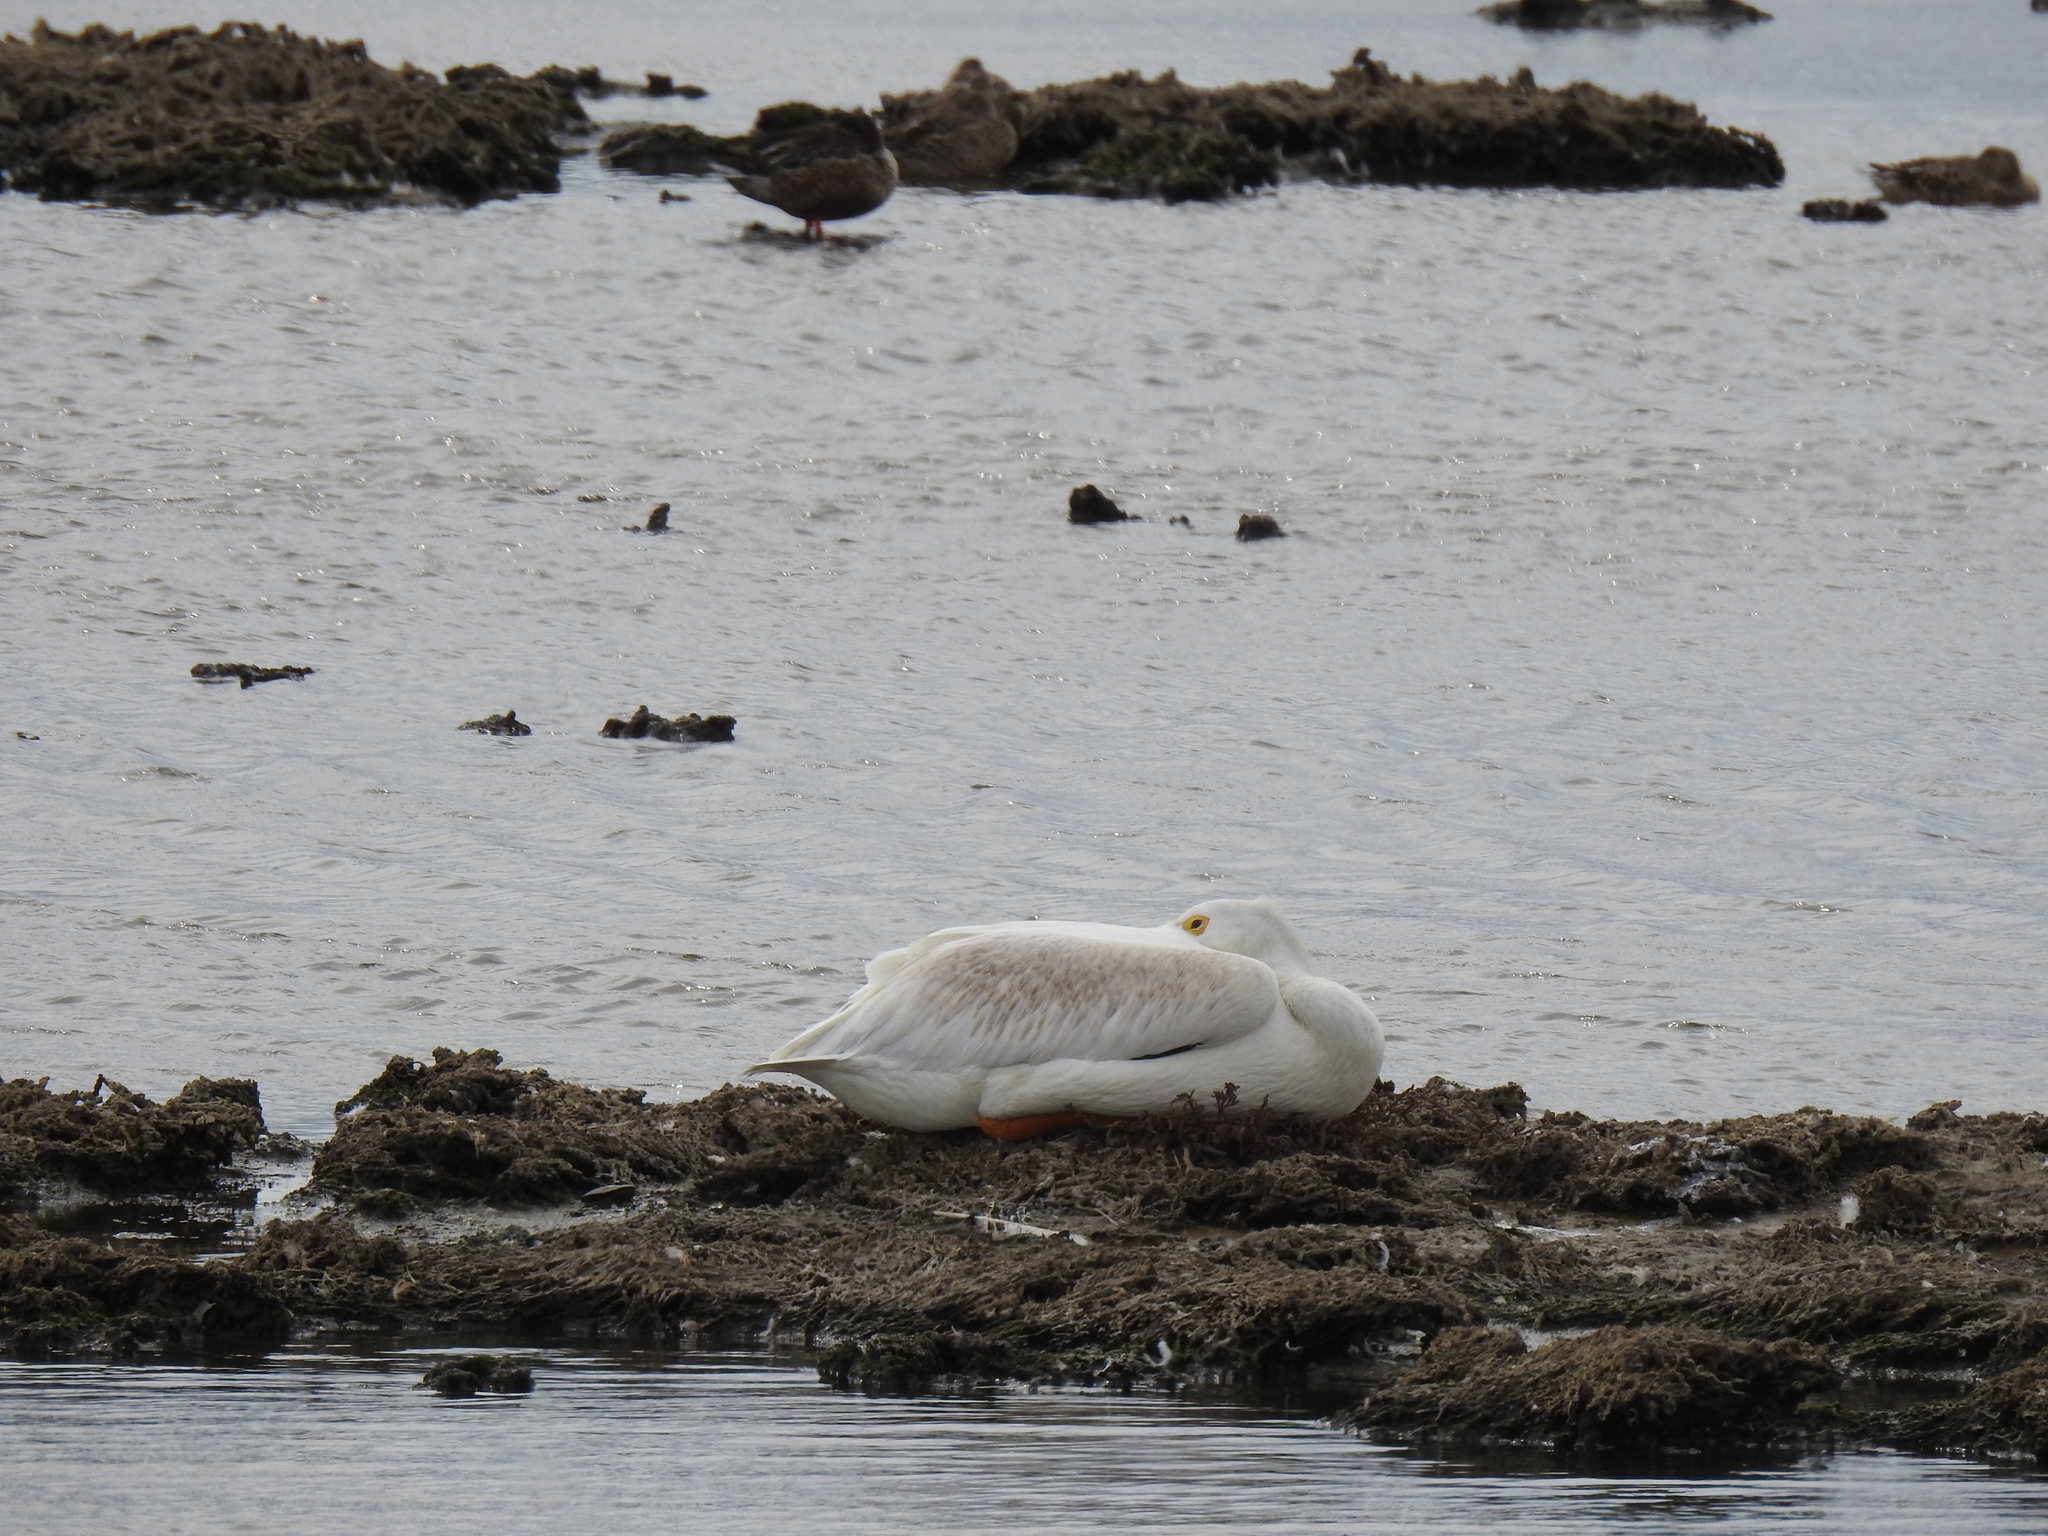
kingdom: Animalia
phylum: Chordata
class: Aves
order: Pelecaniformes
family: Pelecanidae
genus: Pelecanus
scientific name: Pelecanus erythrorhynchos
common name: American white pelican
